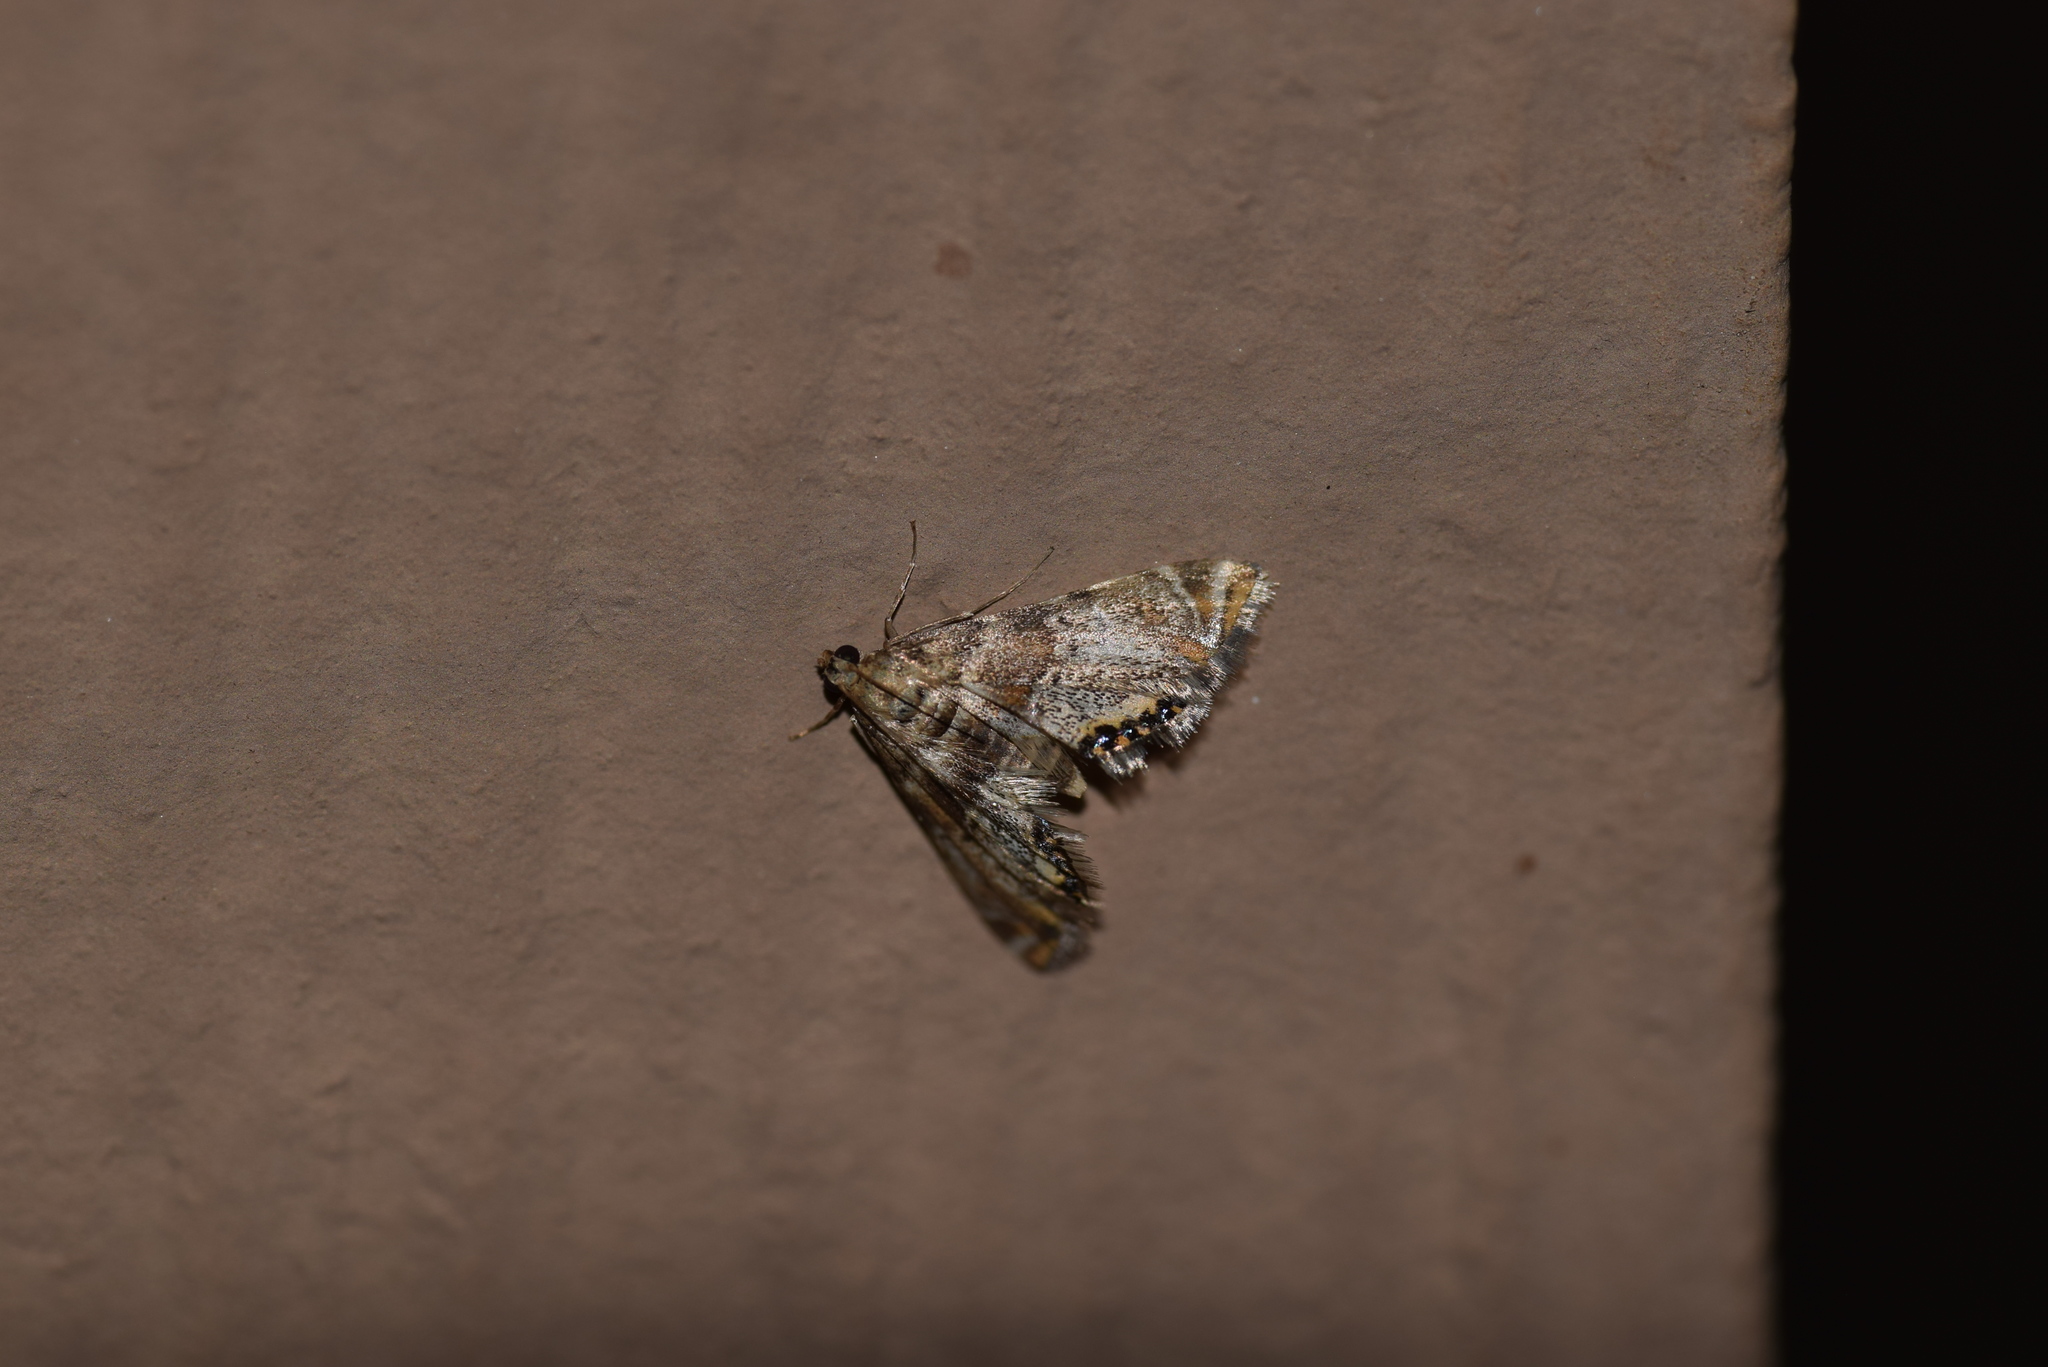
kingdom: Animalia
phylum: Arthropoda
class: Insecta
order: Lepidoptera
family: Crambidae
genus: Petrophila
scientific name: Petrophila jaliscalis
